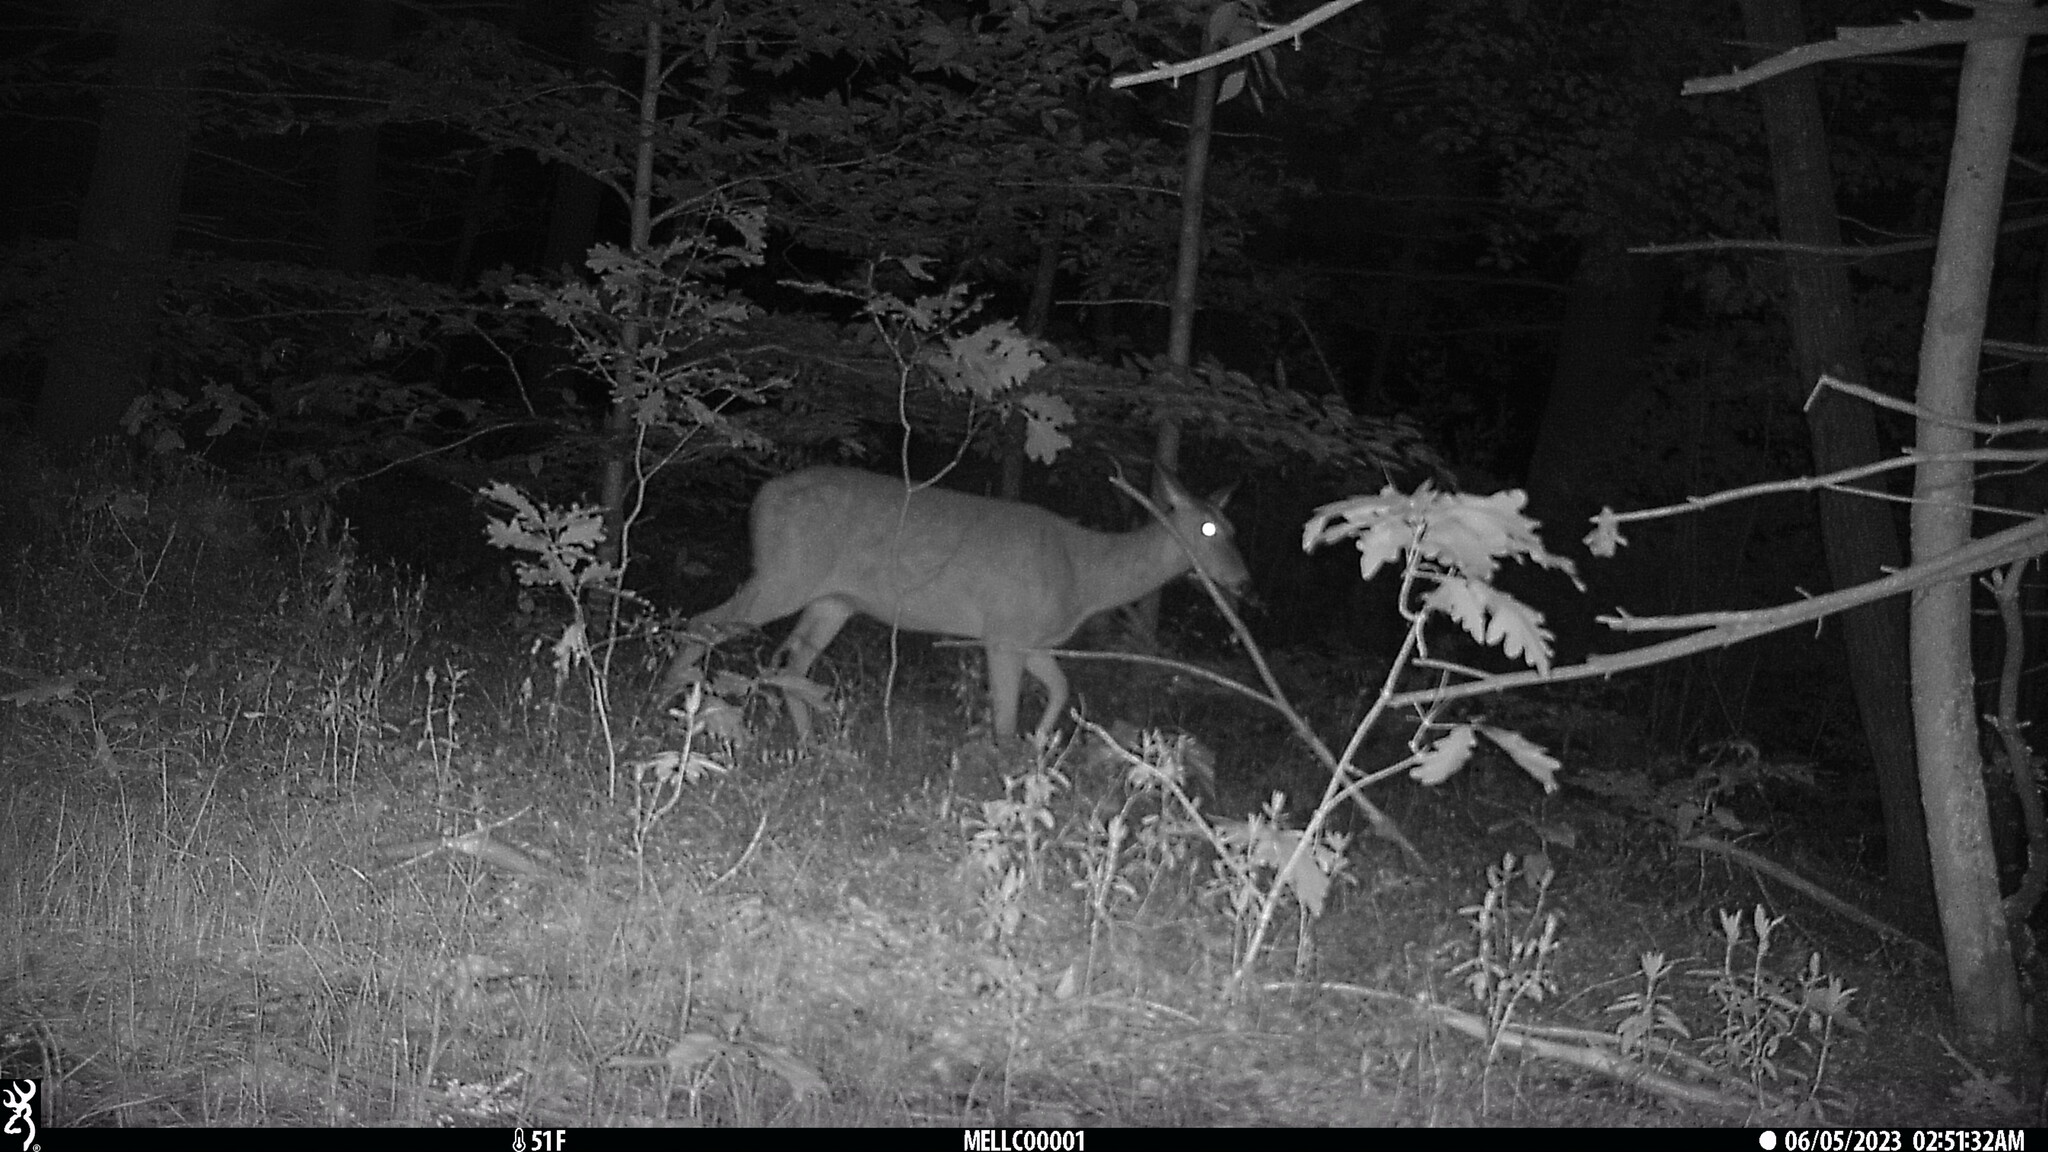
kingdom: Animalia
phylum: Chordata
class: Mammalia
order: Artiodactyla
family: Cervidae
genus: Odocoileus
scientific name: Odocoileus virginianus
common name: White-tailed deer
